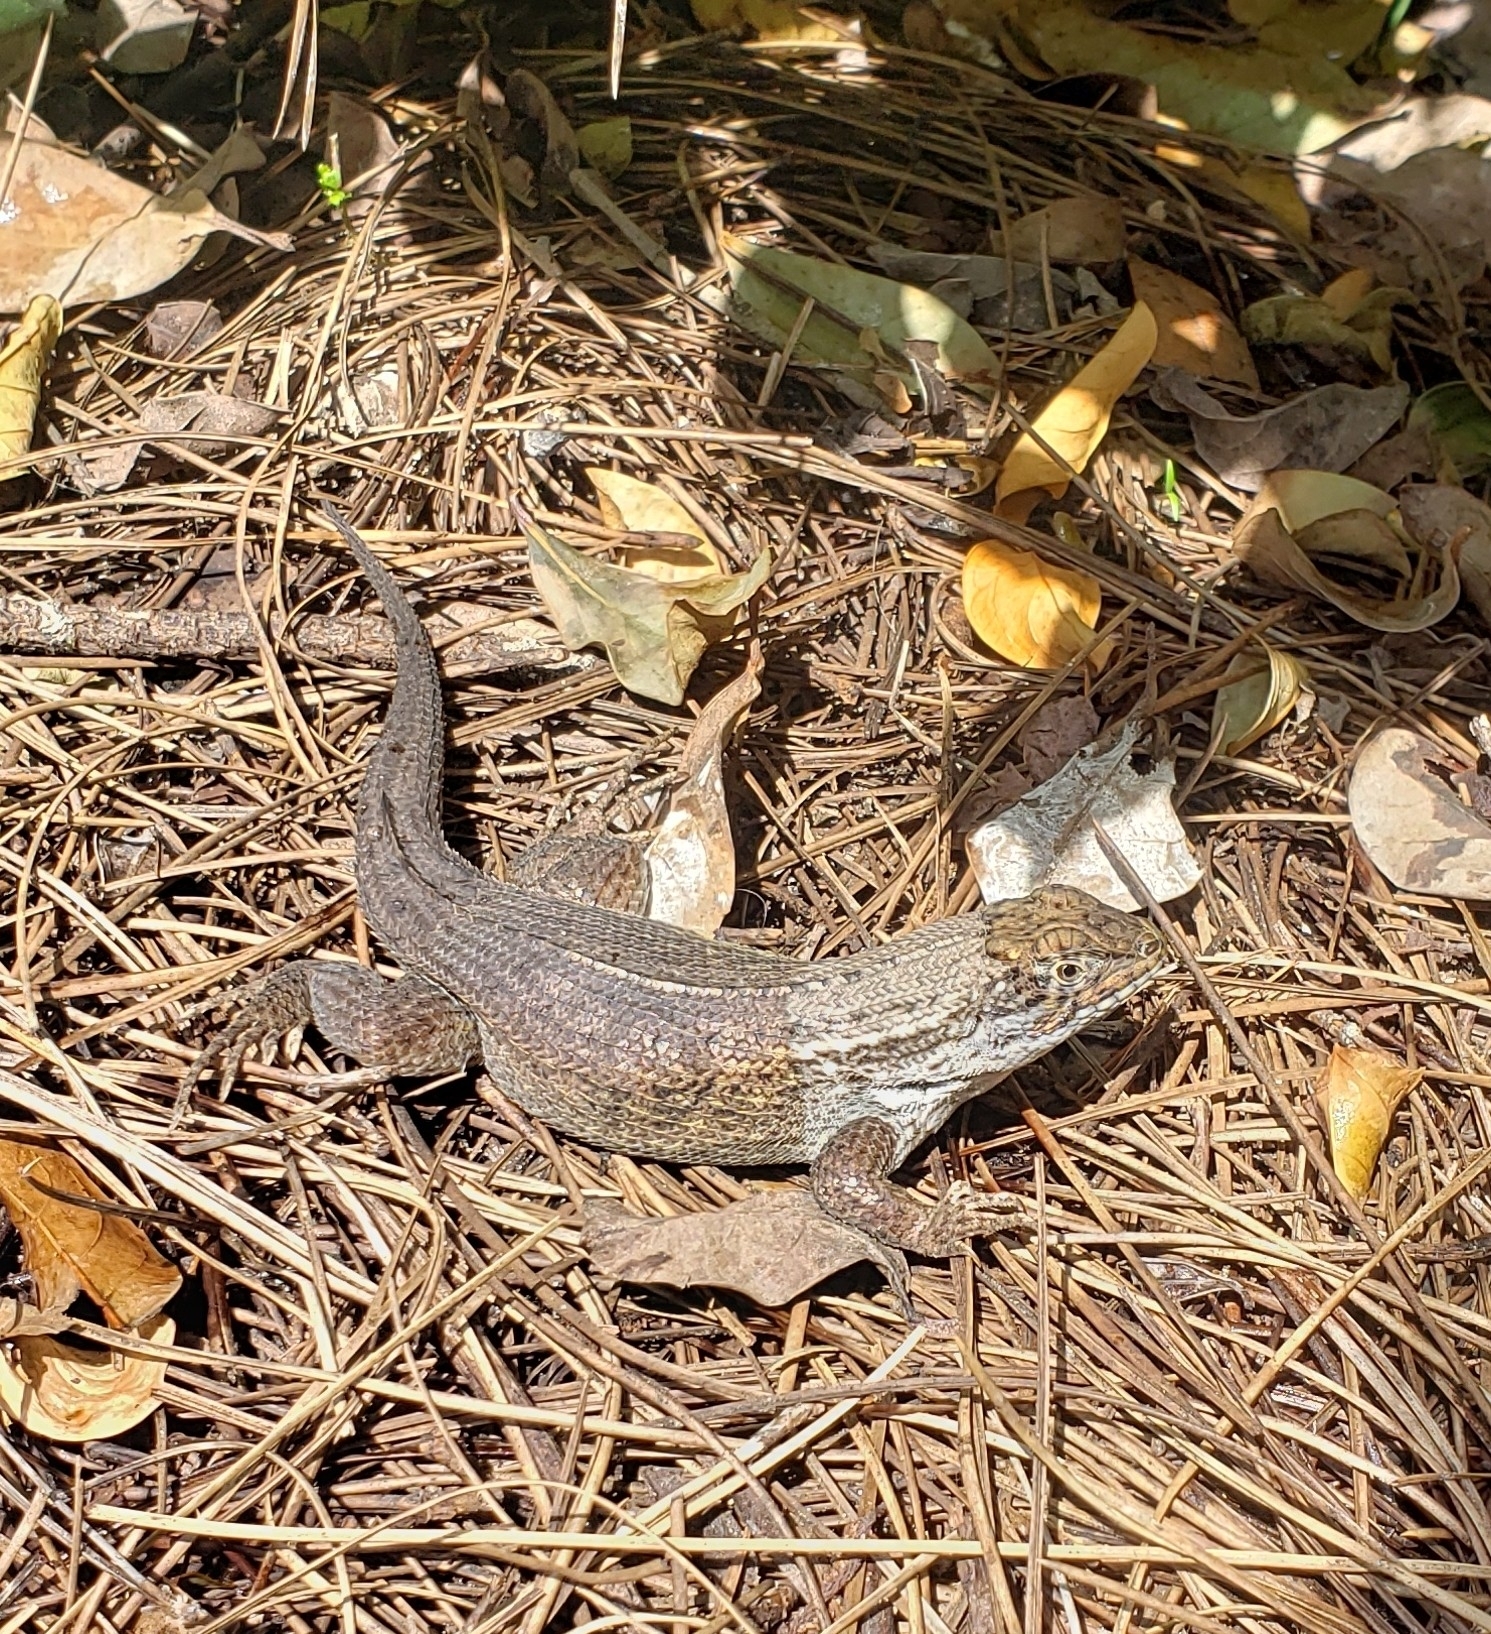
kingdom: Animalia
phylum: Chordata
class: Squamata
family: Leiocephalidae
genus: Leiocephalus
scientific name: Leiocephalus carinatus
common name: Northern curly-tailed lizard
